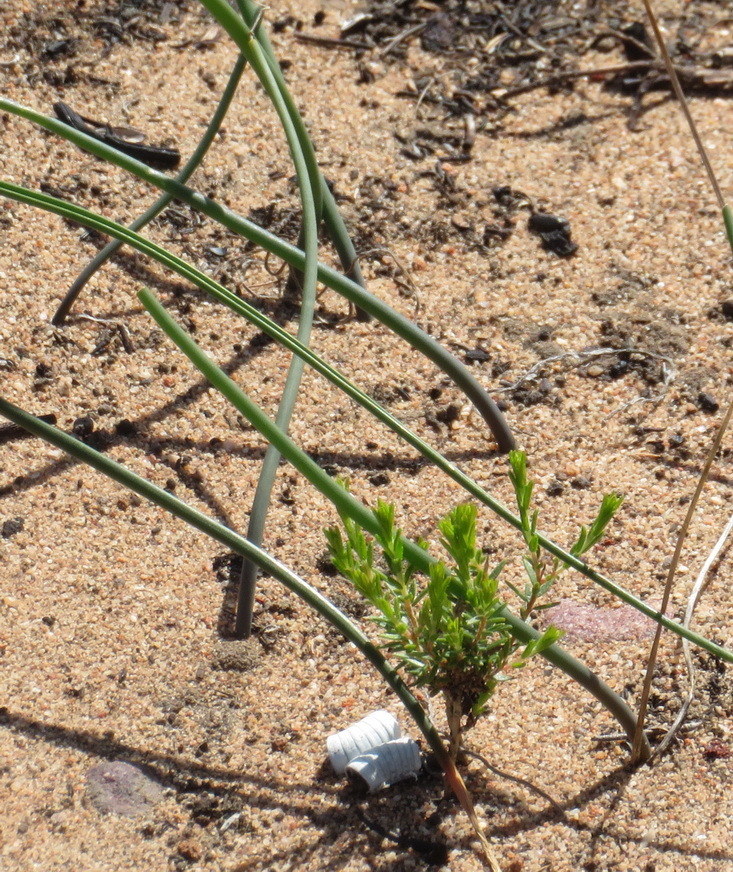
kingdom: Plantae
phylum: Tracheophyta
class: Liliopsida
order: Asparagales
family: Asparagaceae
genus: Drimia
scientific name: Drimia anomala
